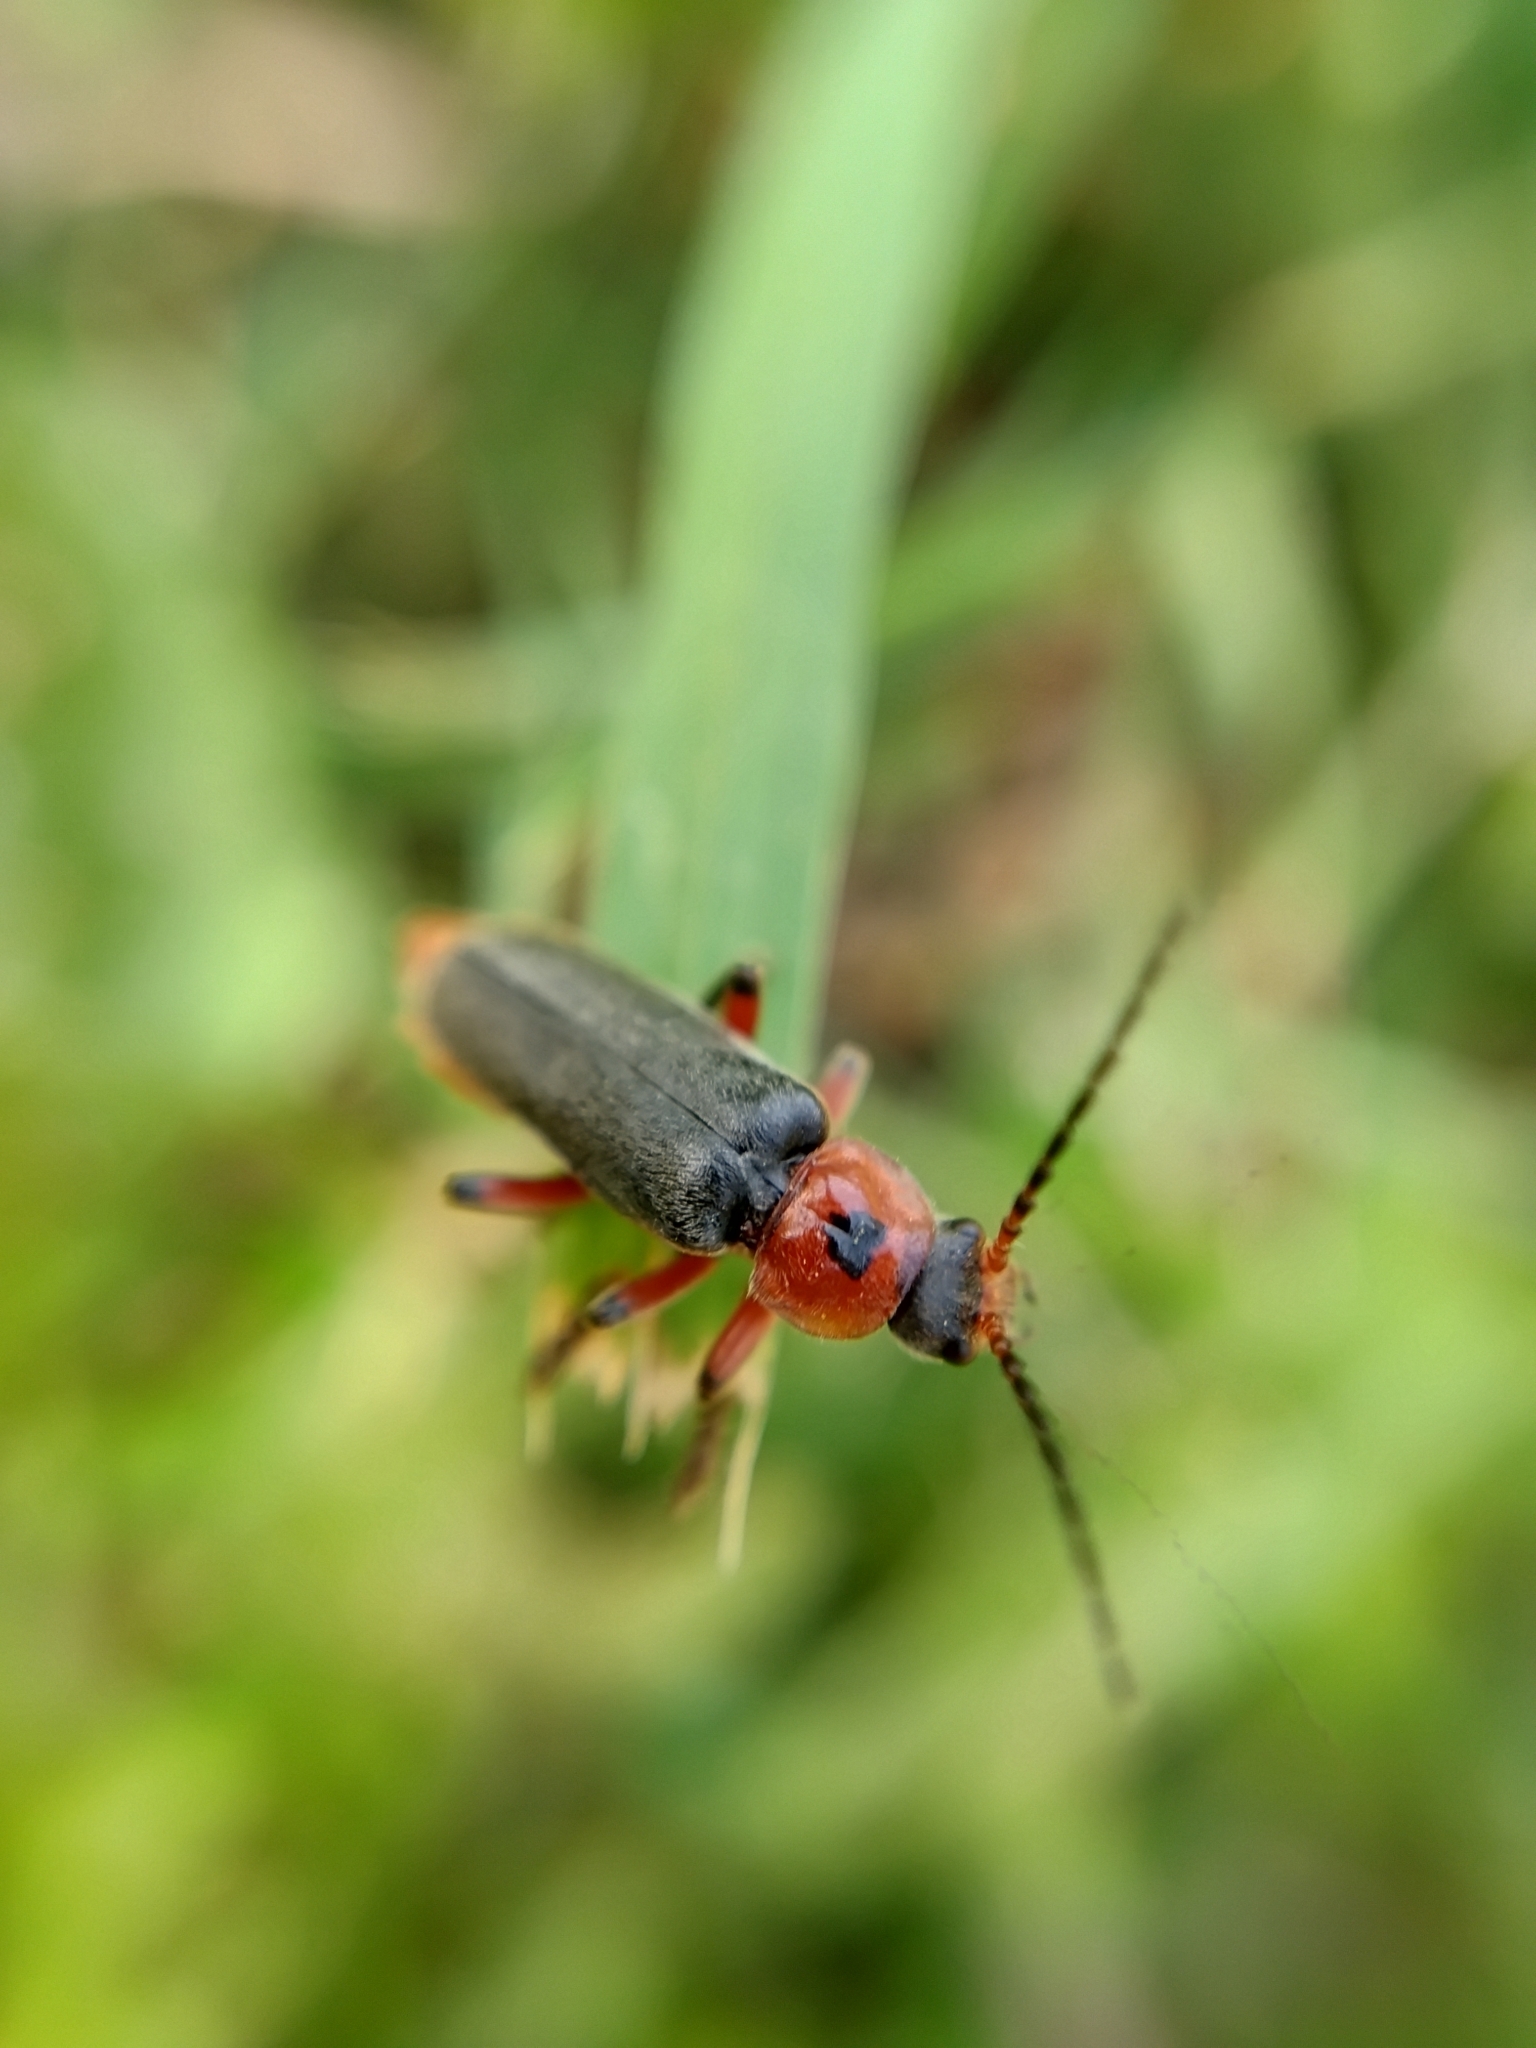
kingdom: Animalia
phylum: Arthropoda
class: Insecta
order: Coleoptera
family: Cantharidae
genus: Cantharis
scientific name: Cantharis rustica
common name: Soldier beetle
